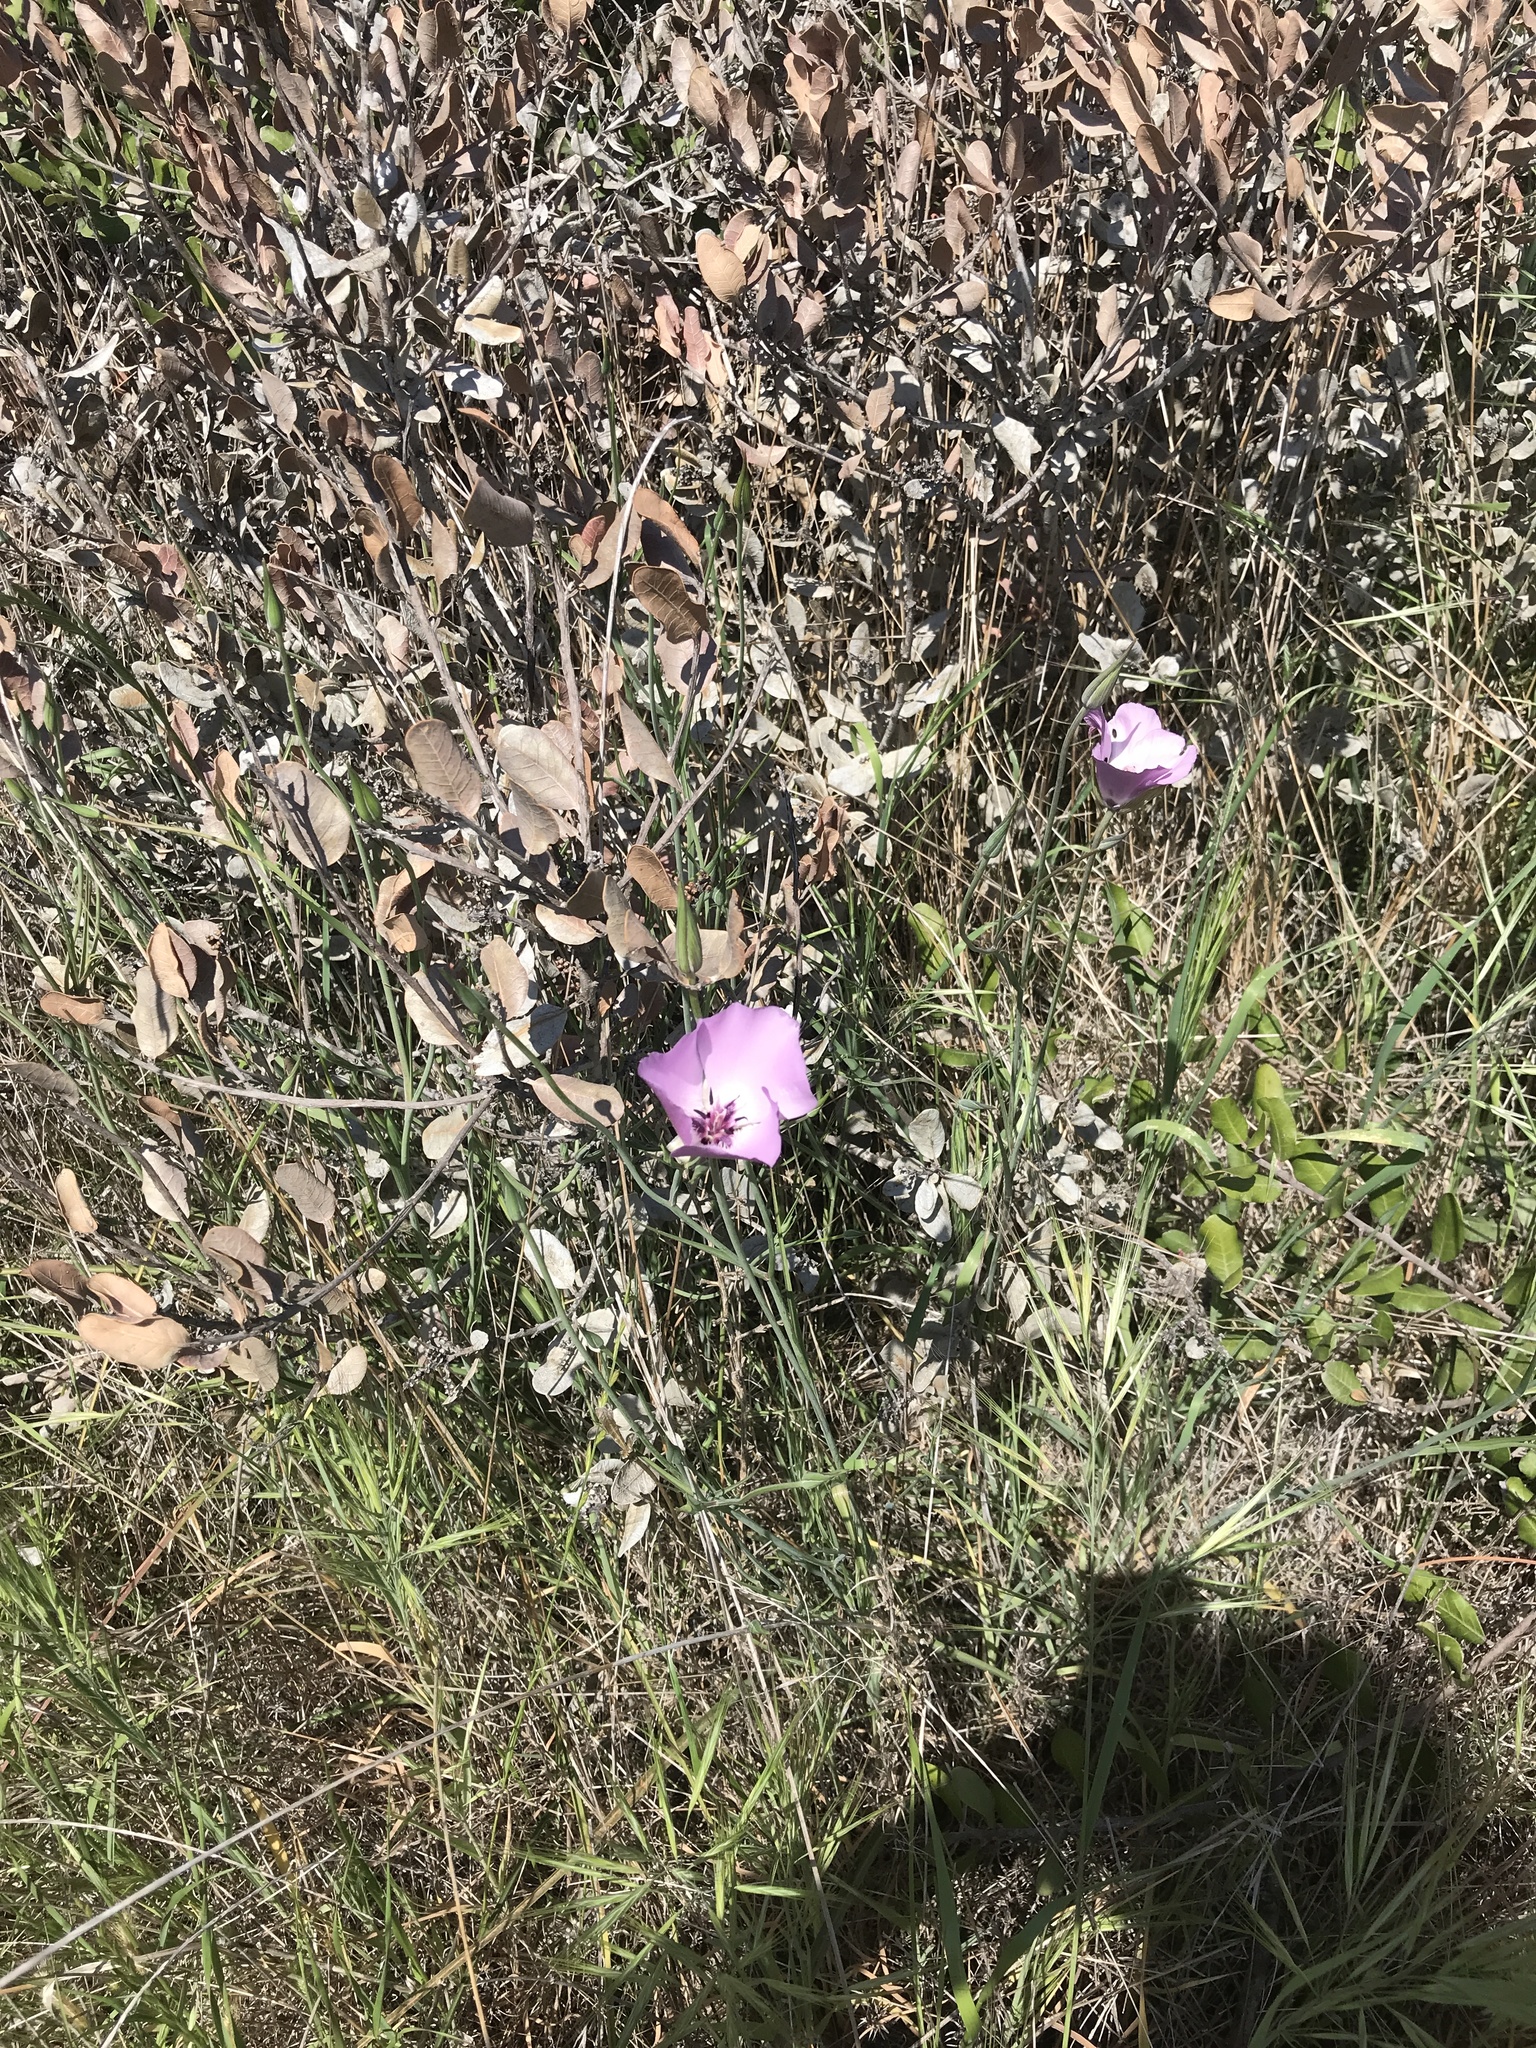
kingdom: Plantae
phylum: Tracheophyta
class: Liliopsida
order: Liliales
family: Liliaceae
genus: Calochortus
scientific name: Calochortus splendens
